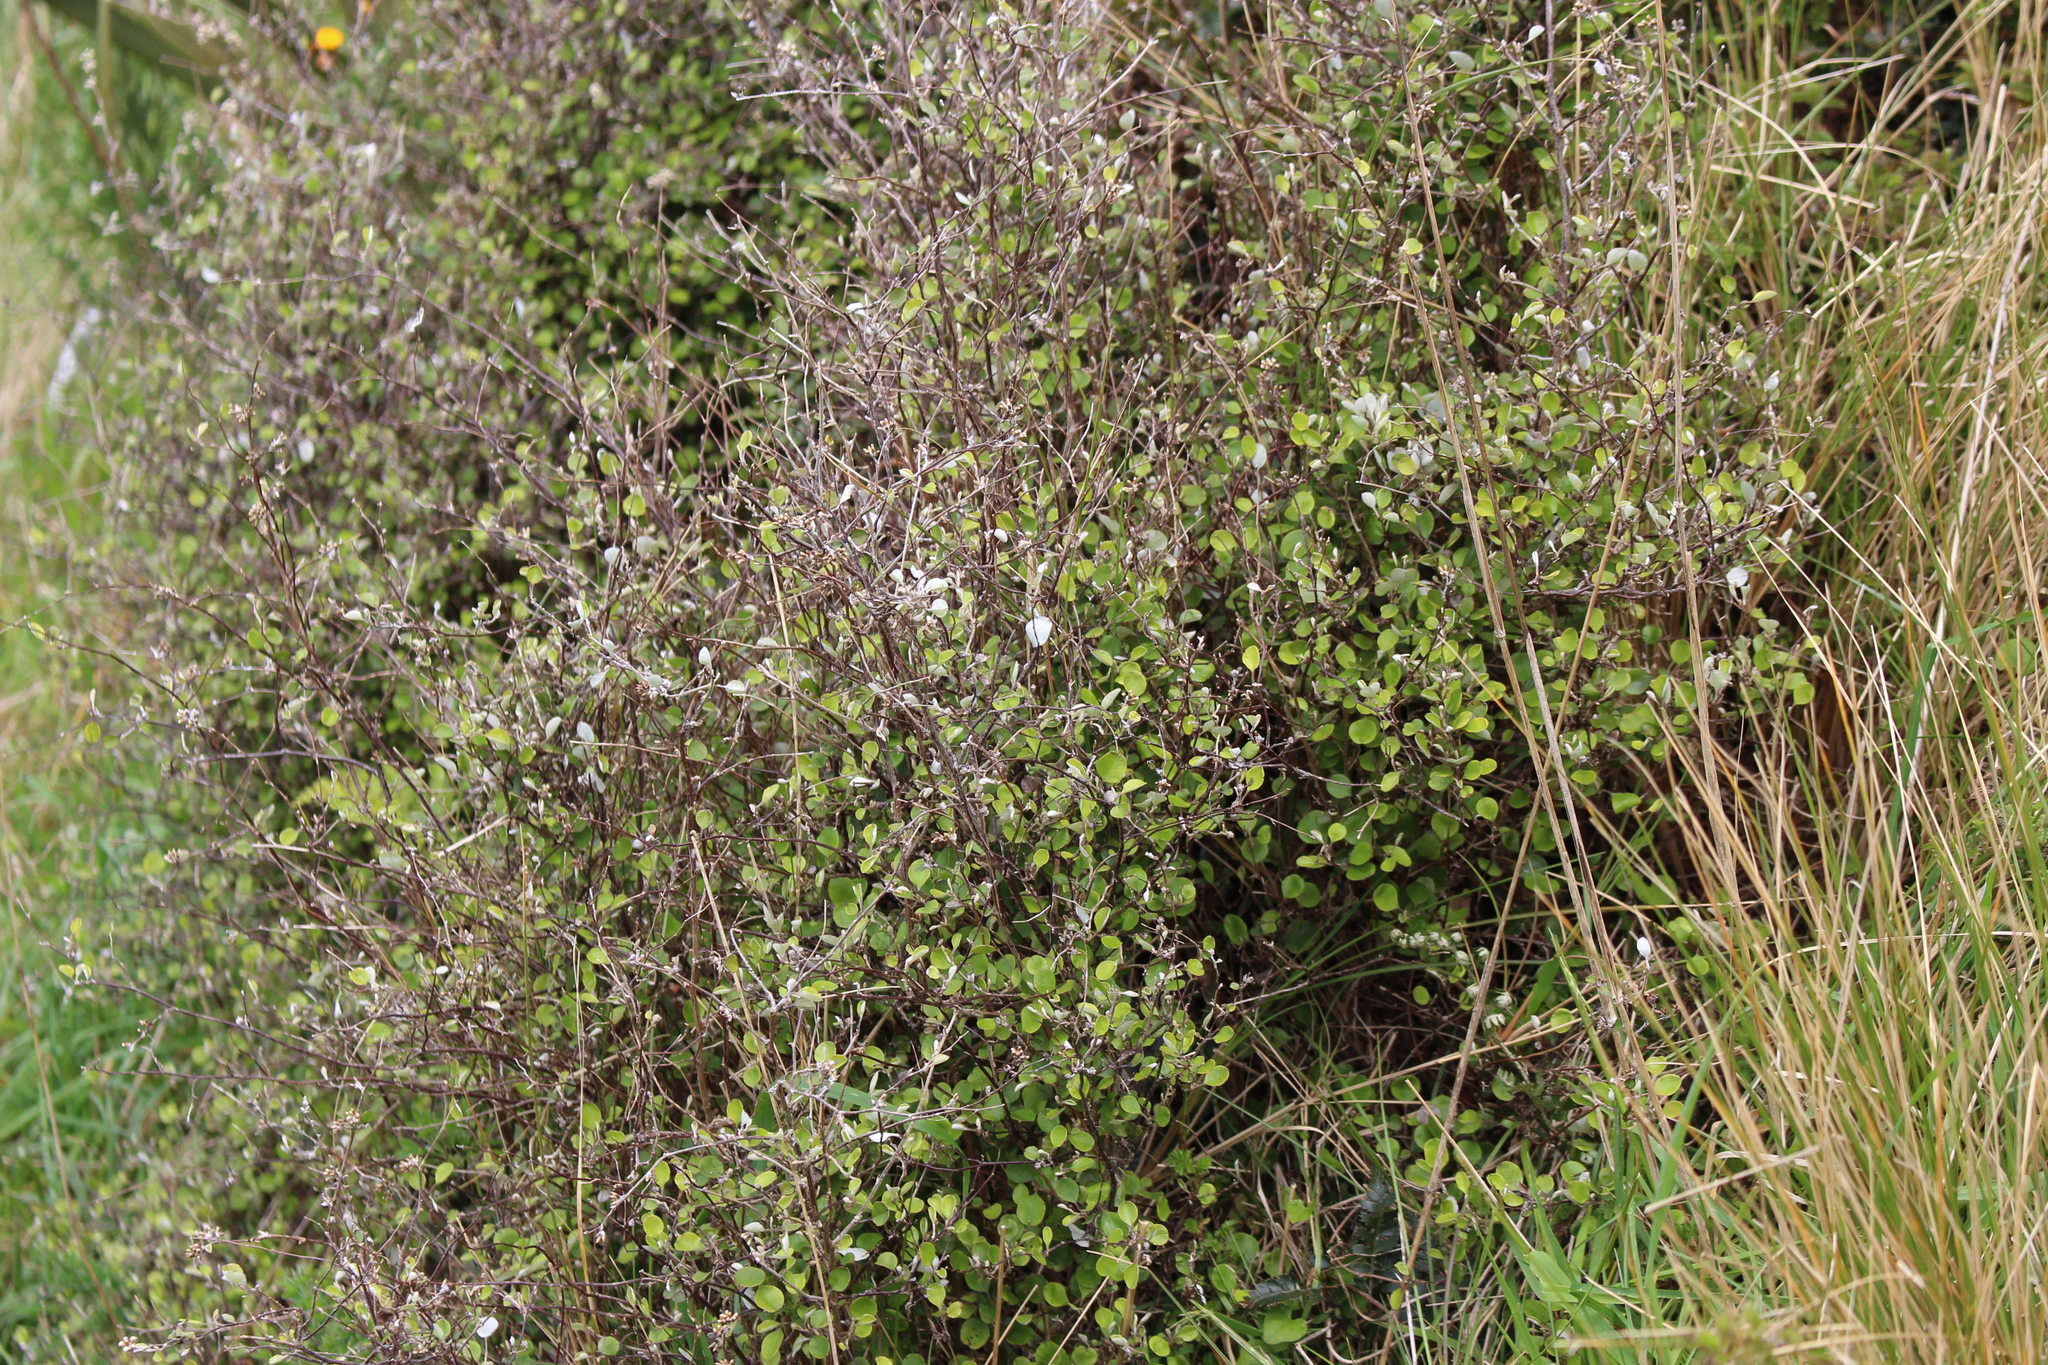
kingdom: Plantae
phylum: Tracheophyta
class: Magnoliopsida
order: Asterales
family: Asteraceae
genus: Ozothamnus
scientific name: Ozothamnus glomeratus
